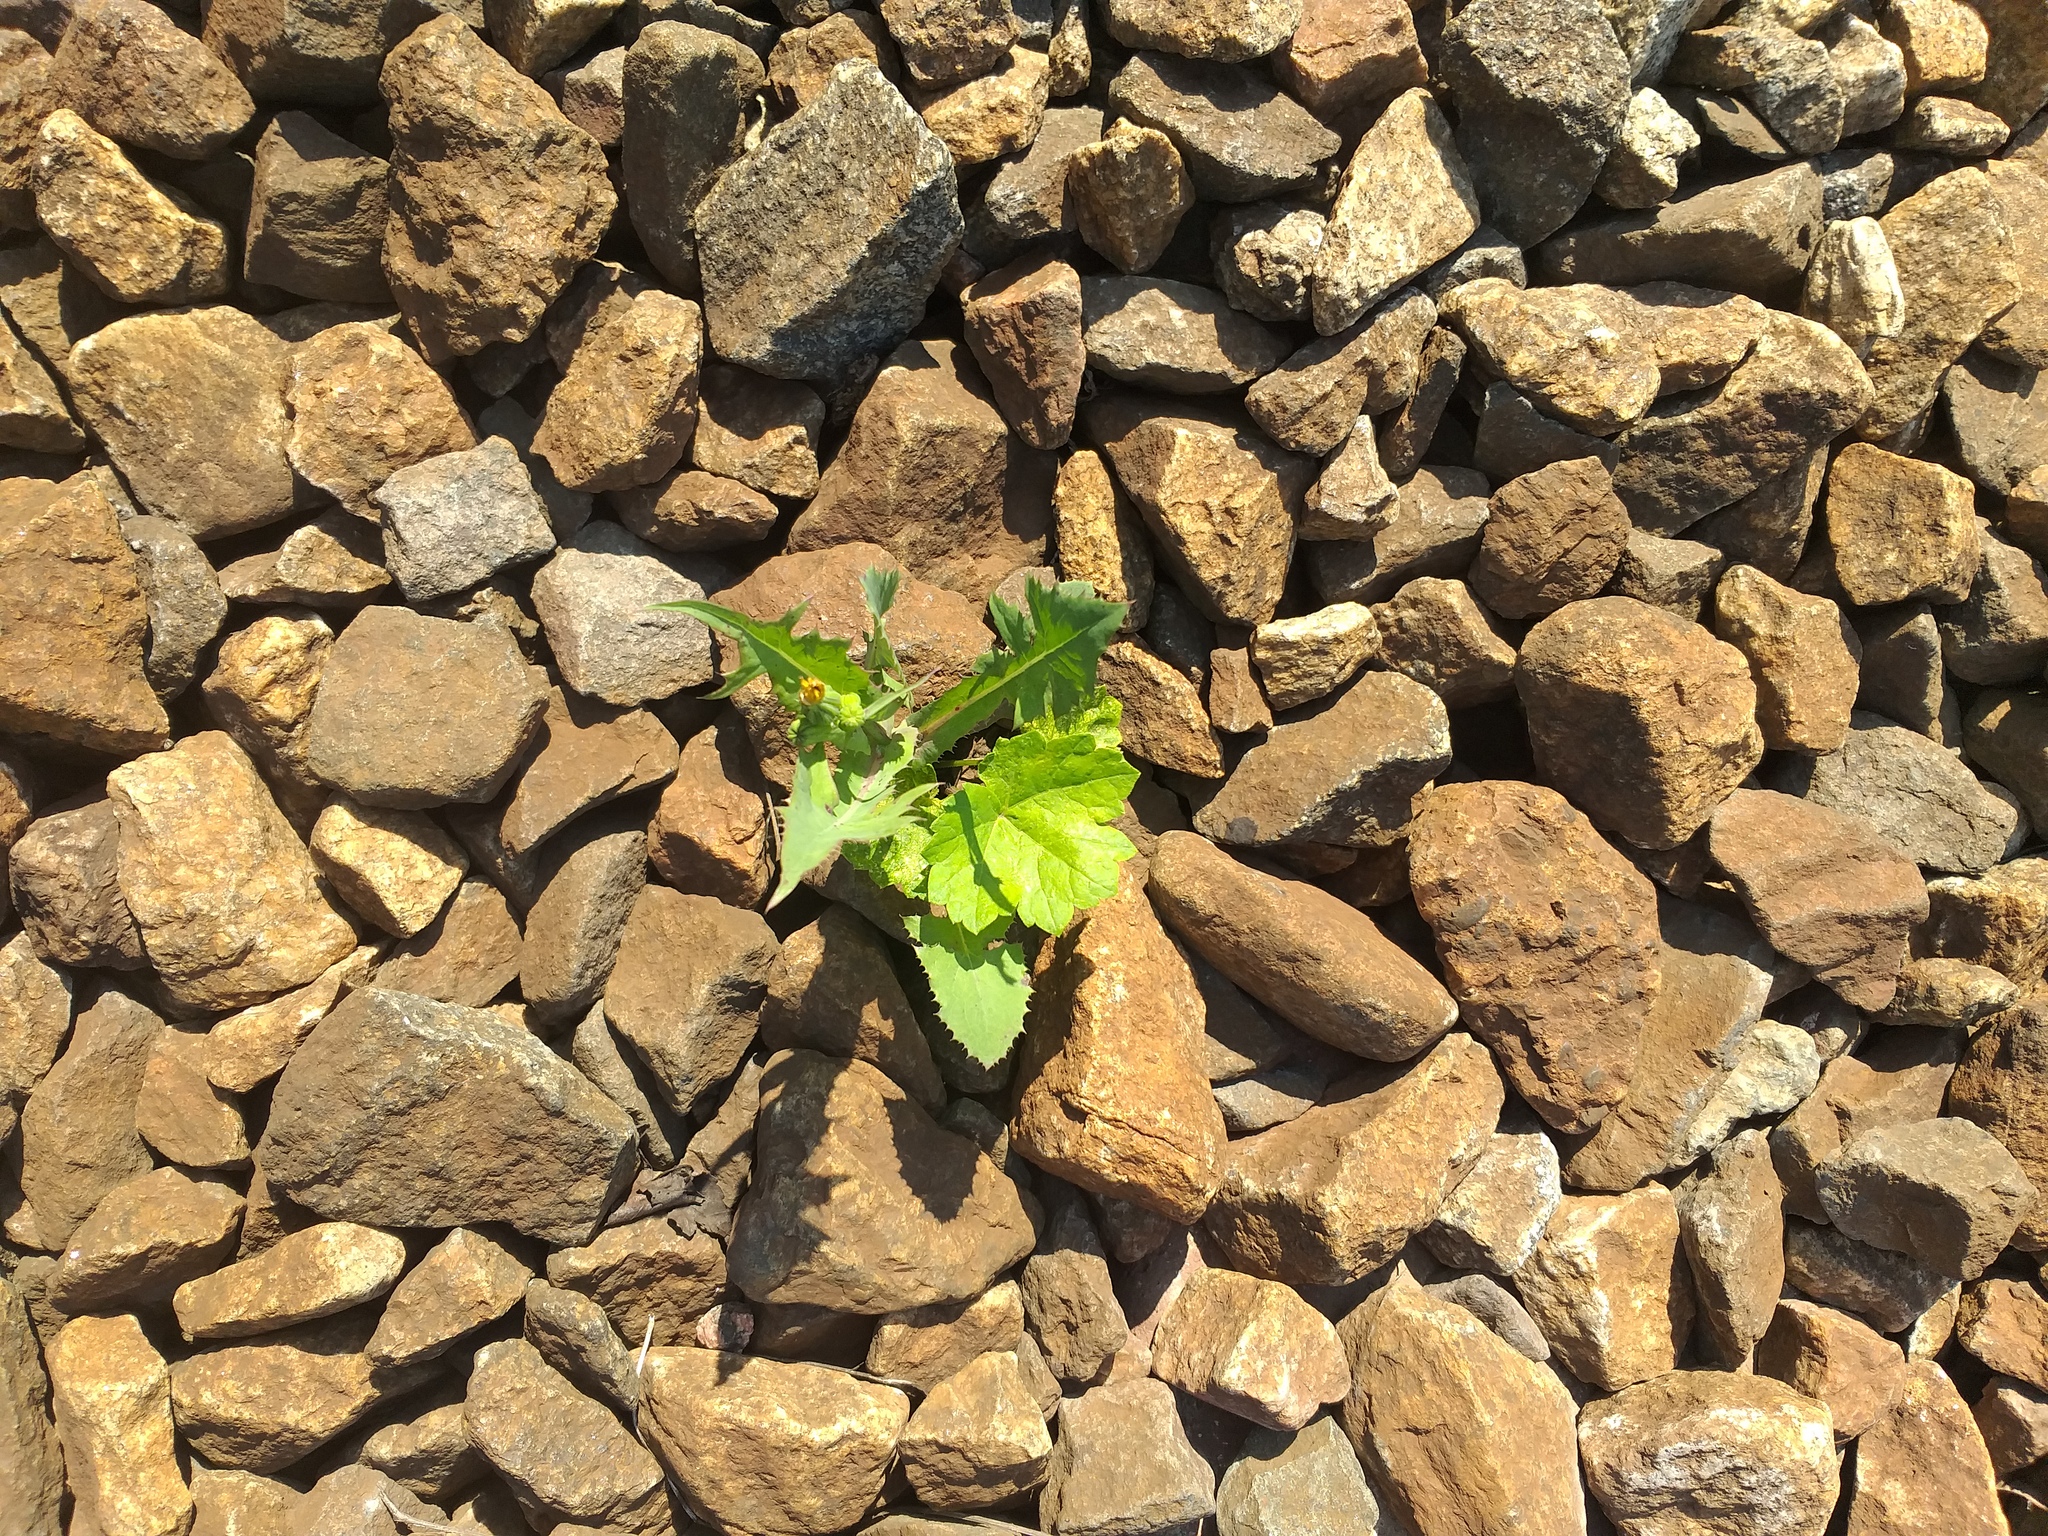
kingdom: Plantae
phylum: Tracheophyta
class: Magnoliopsida
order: Asterales
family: Asteraceae
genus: Sonchus
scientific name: Sonchus oleraceus
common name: Common sowthistle
